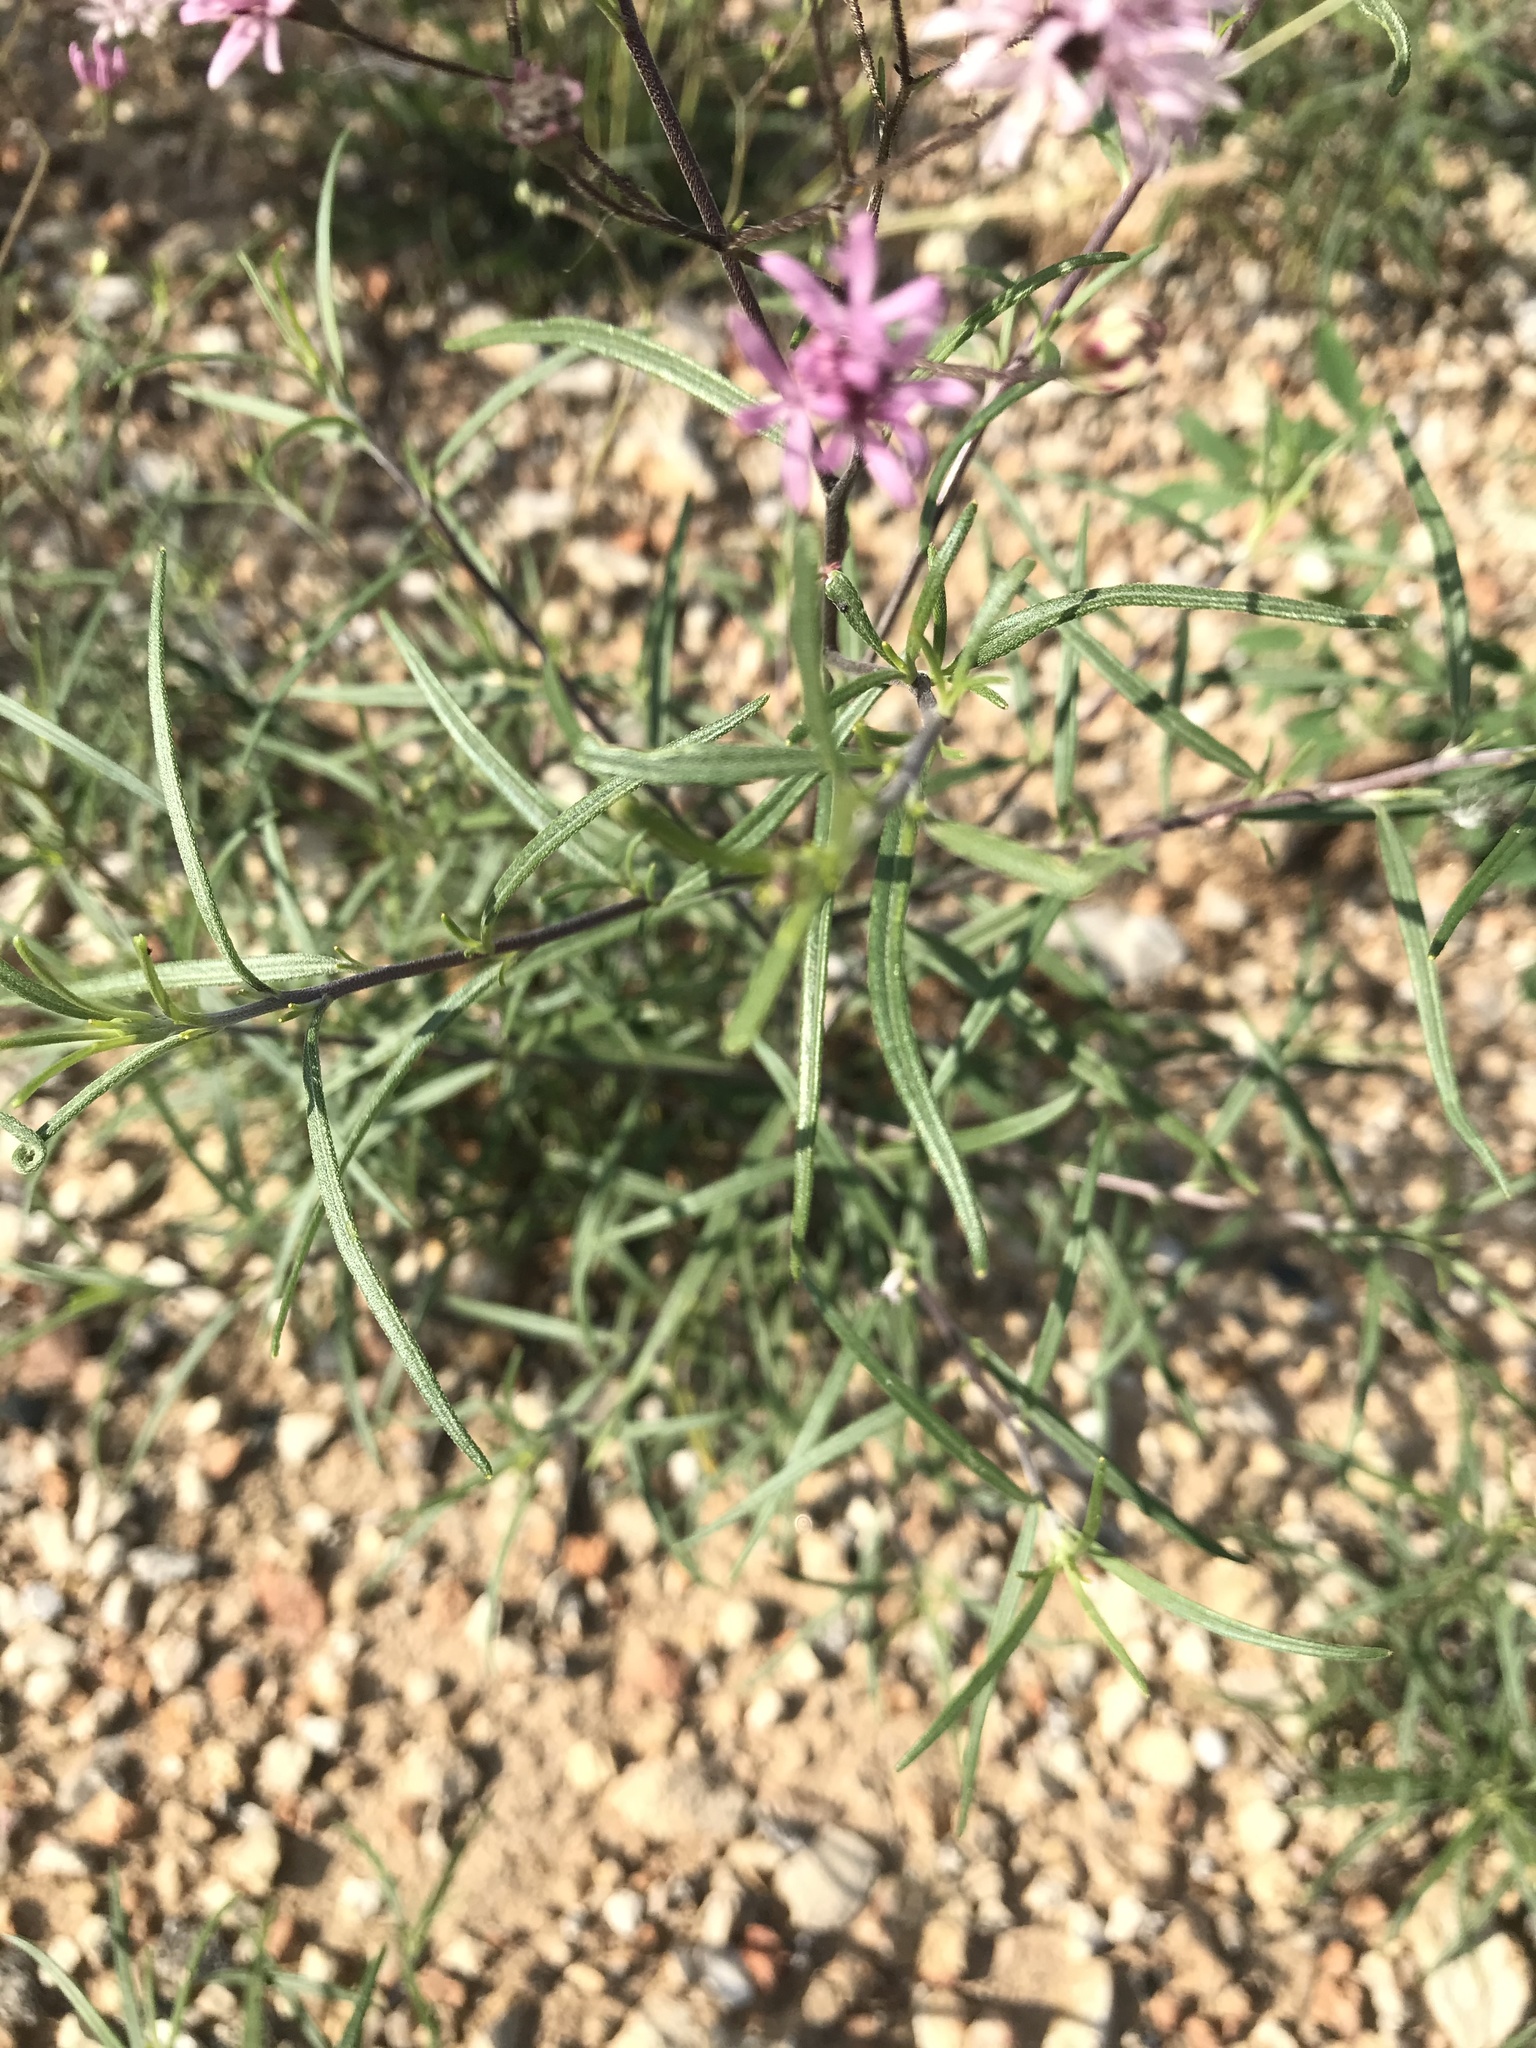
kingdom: Plantae
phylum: Tracheophyta
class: Magnoliopsida
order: Asterales
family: Asteraceae
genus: Palafoxia
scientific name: Palafoxia callosa
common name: Small palafox
